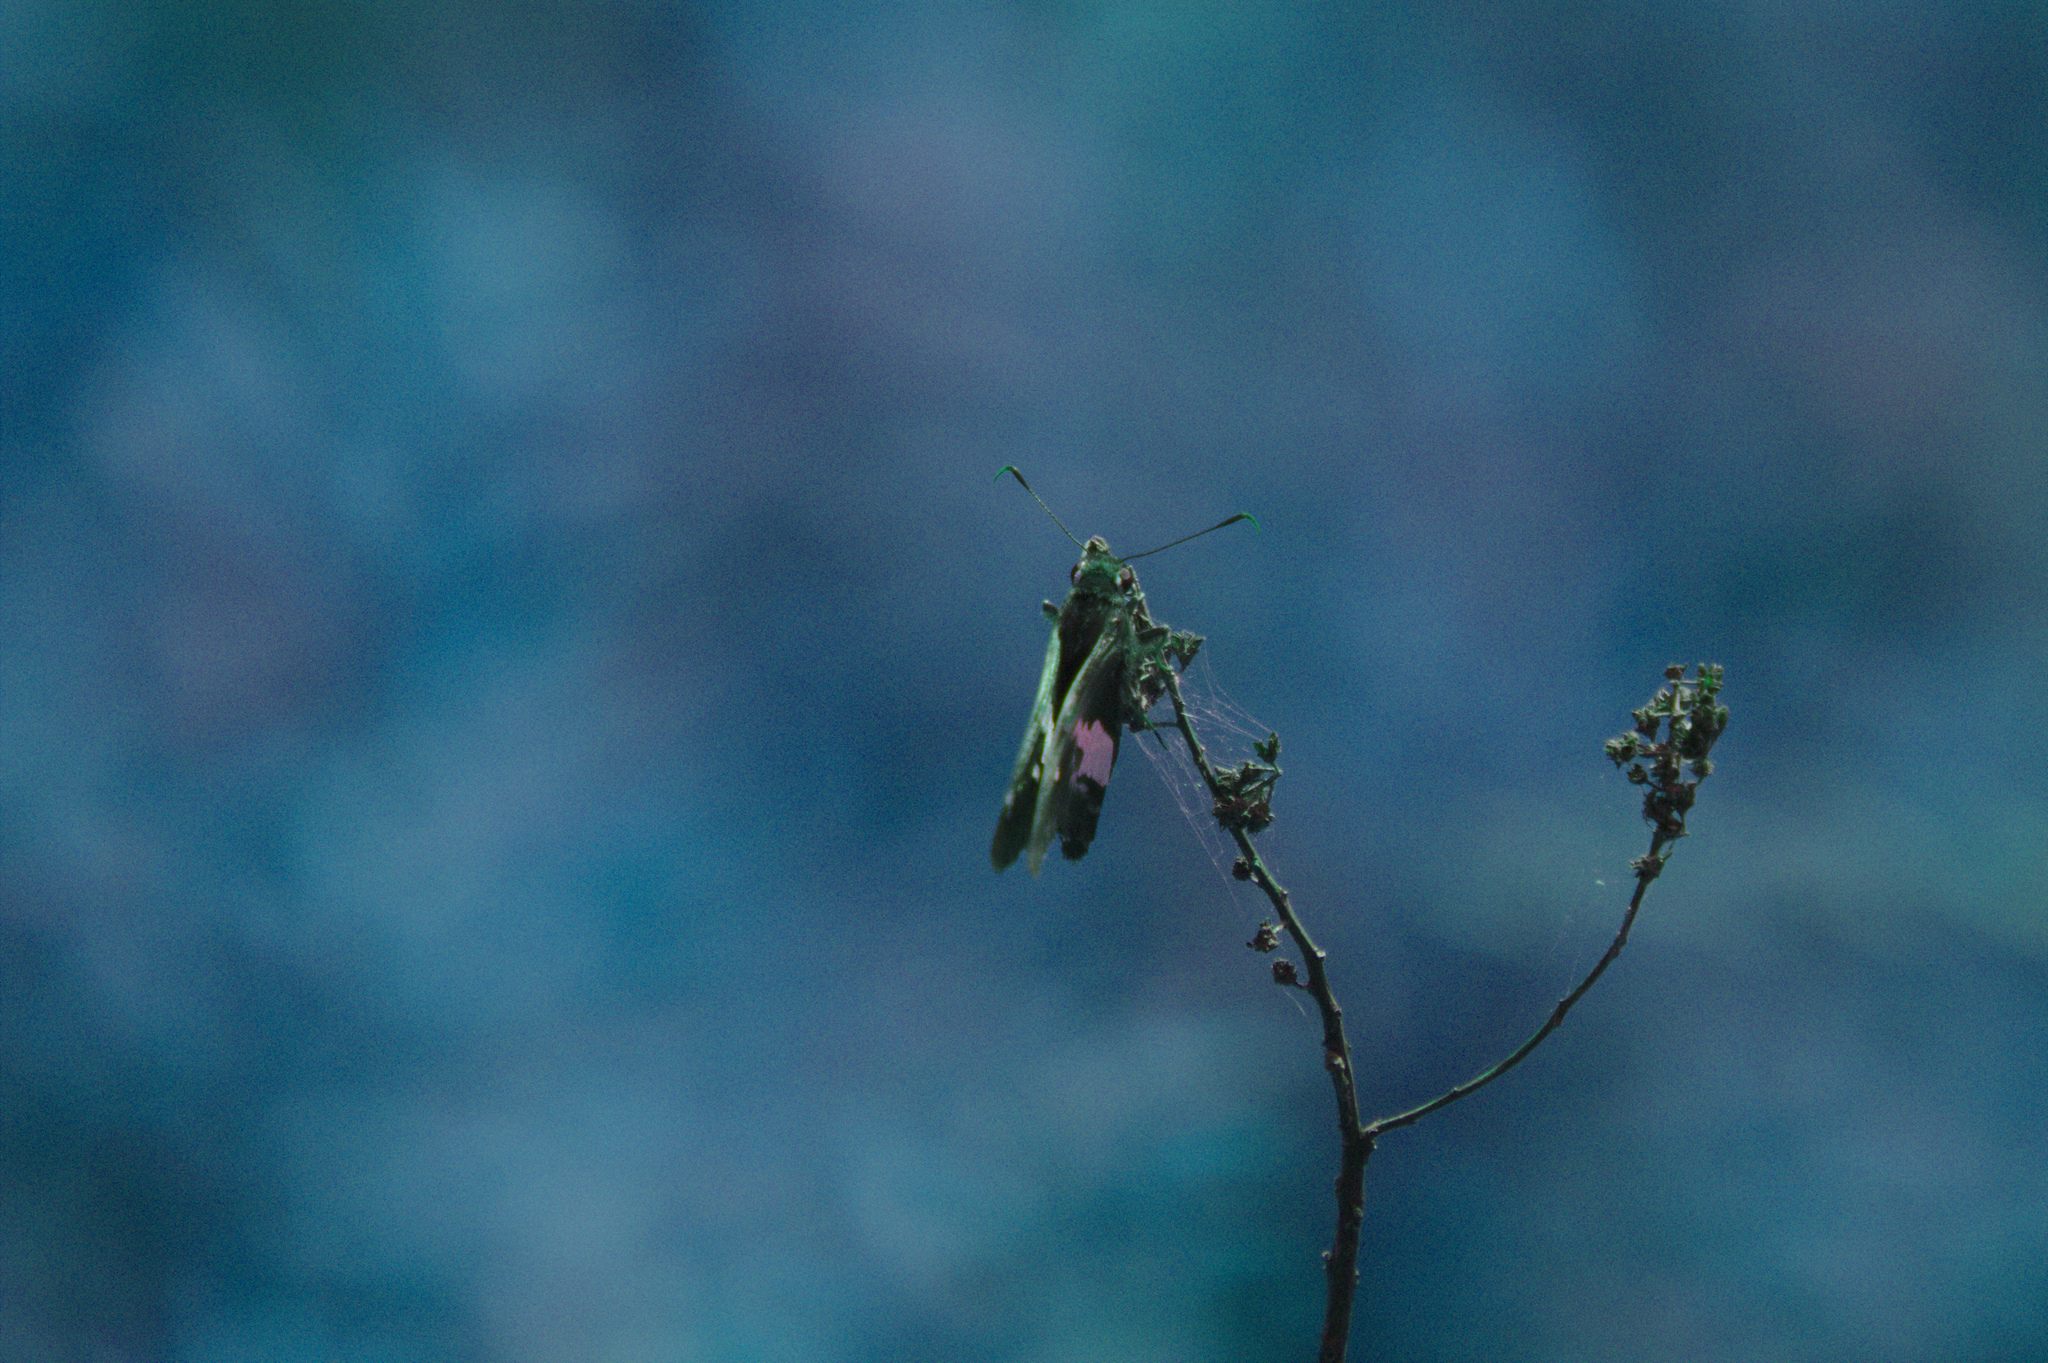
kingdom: Animalia
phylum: Arthropoda
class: Insecta
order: Lepidoptera
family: Hesperiidae
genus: Epargyreus
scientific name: Epargyreus clarus
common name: Silver-spotted skipper
